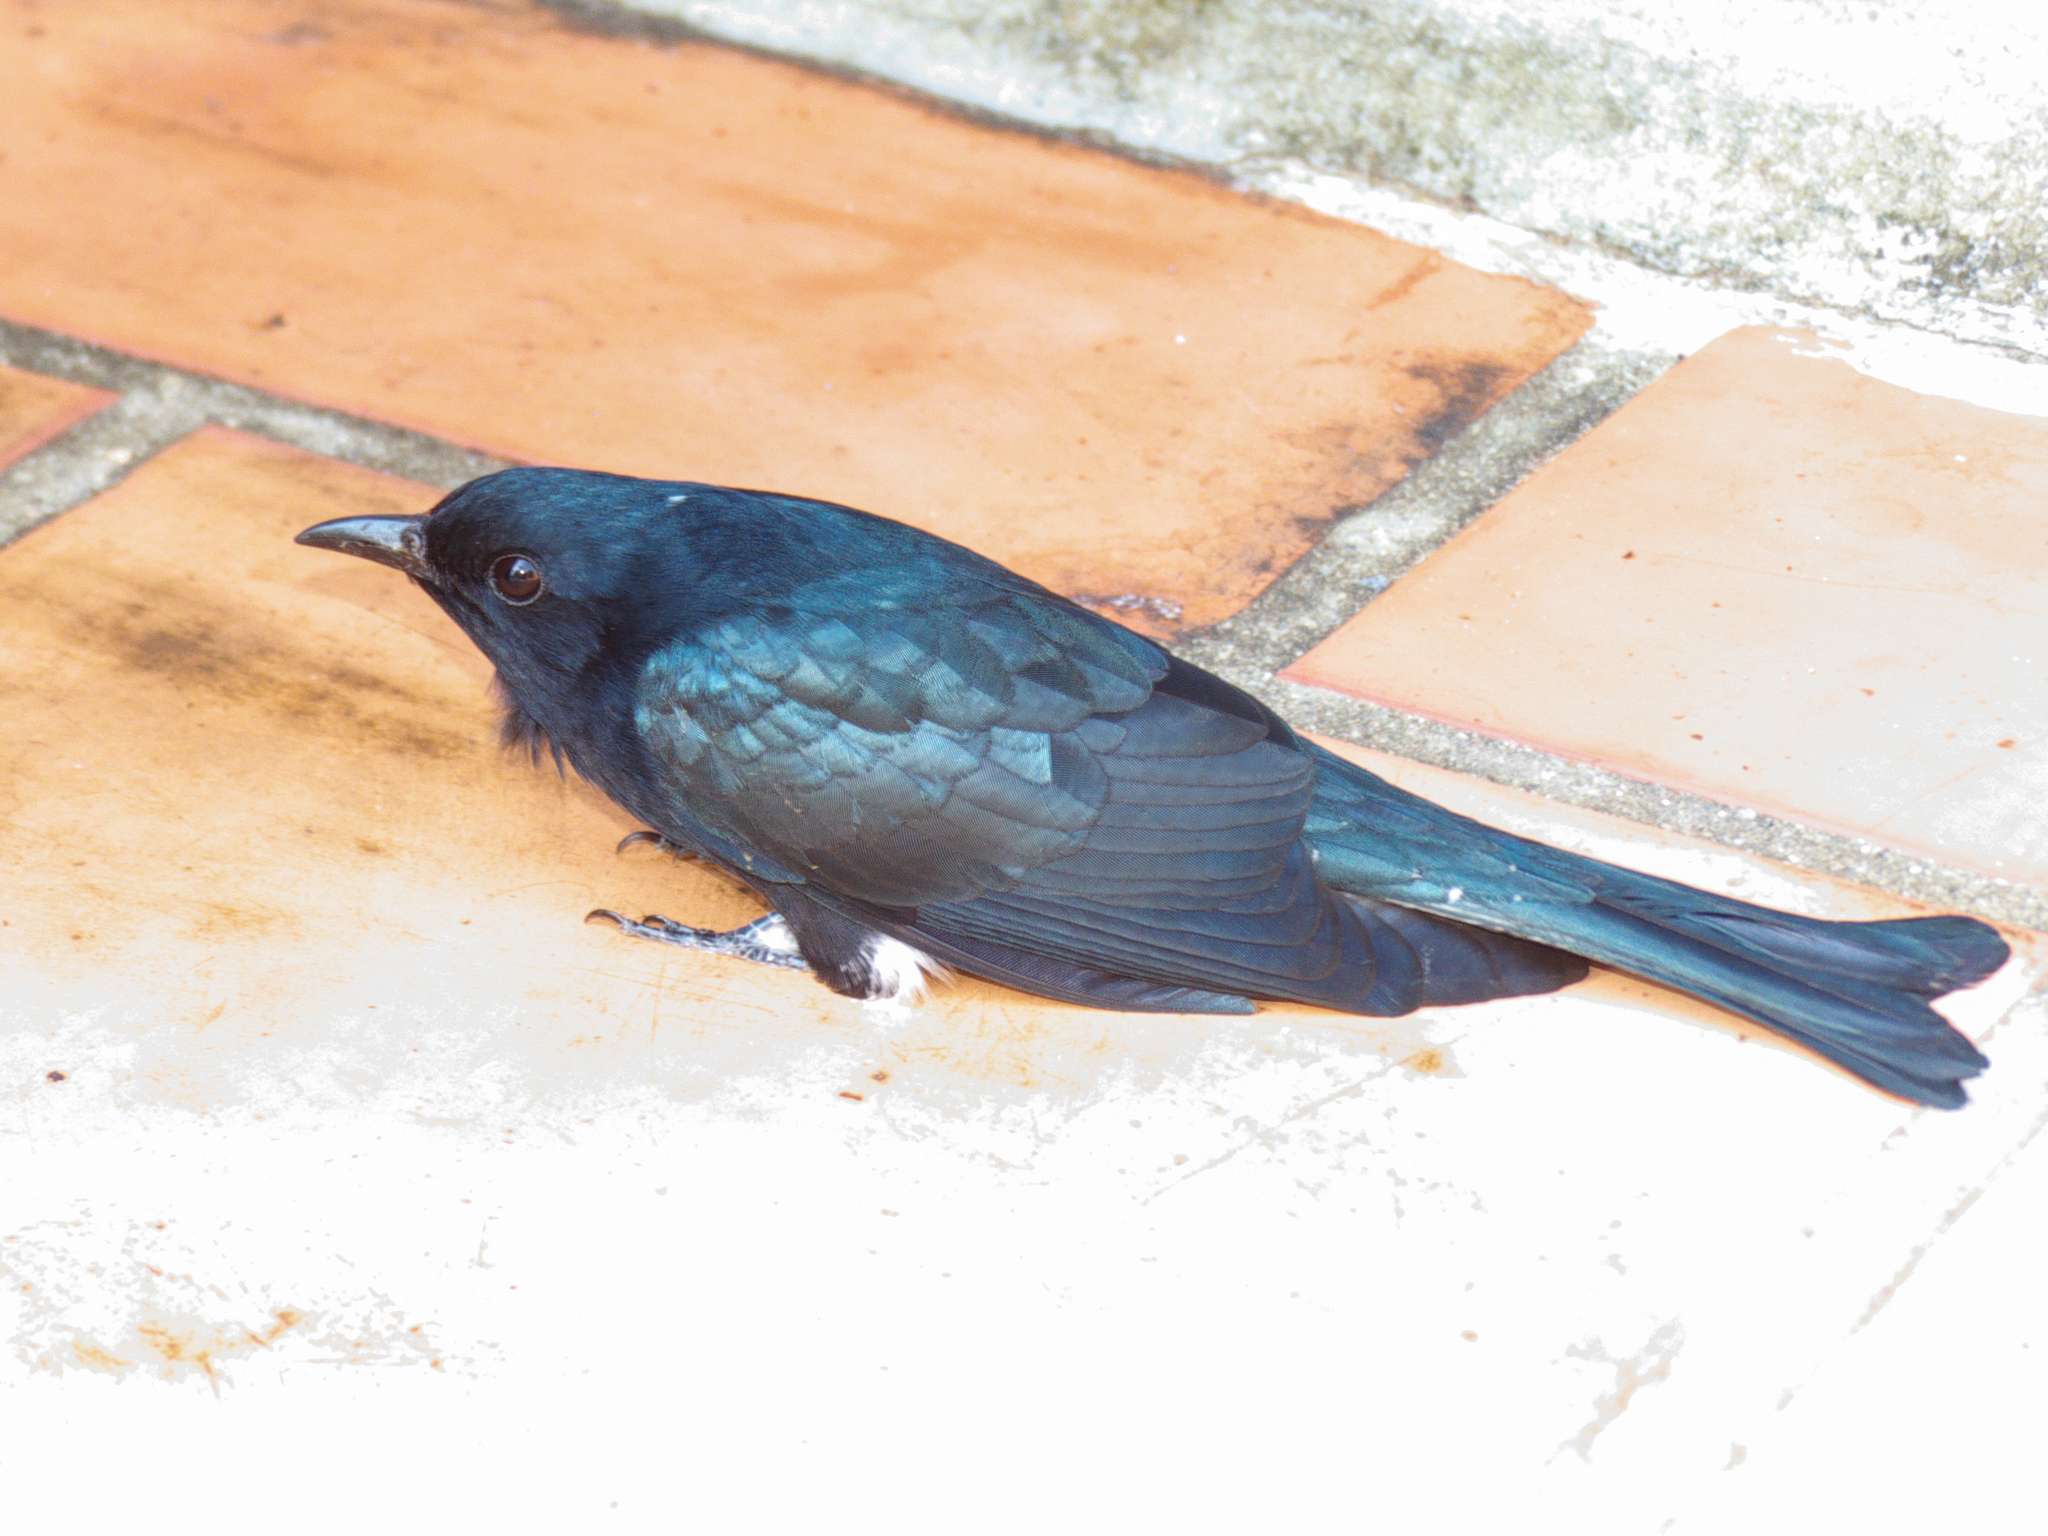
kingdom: Animalia
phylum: Chordata
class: Aves
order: Cuculiformes
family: Cuculidae
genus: Surniculus
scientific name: Surniculus lugubris
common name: Square-tailed drongo-cuckoo
